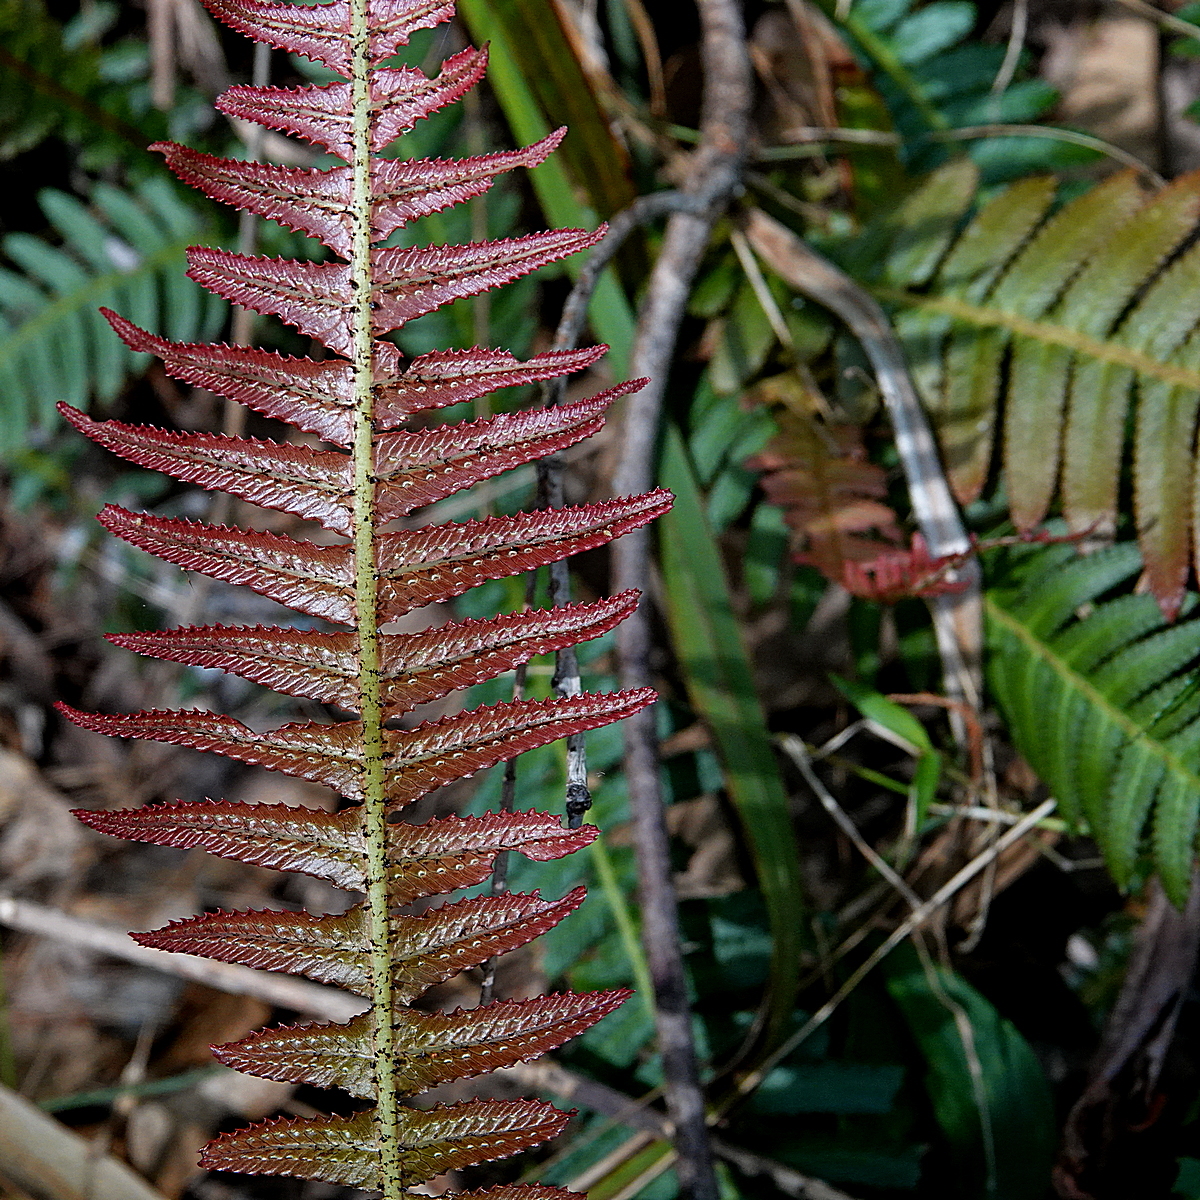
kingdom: Plantae
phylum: Tracheophyta
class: Polypodiopsida
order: Polypodiales
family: Blechnaceae
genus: Doodia
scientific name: Doodia aspera
